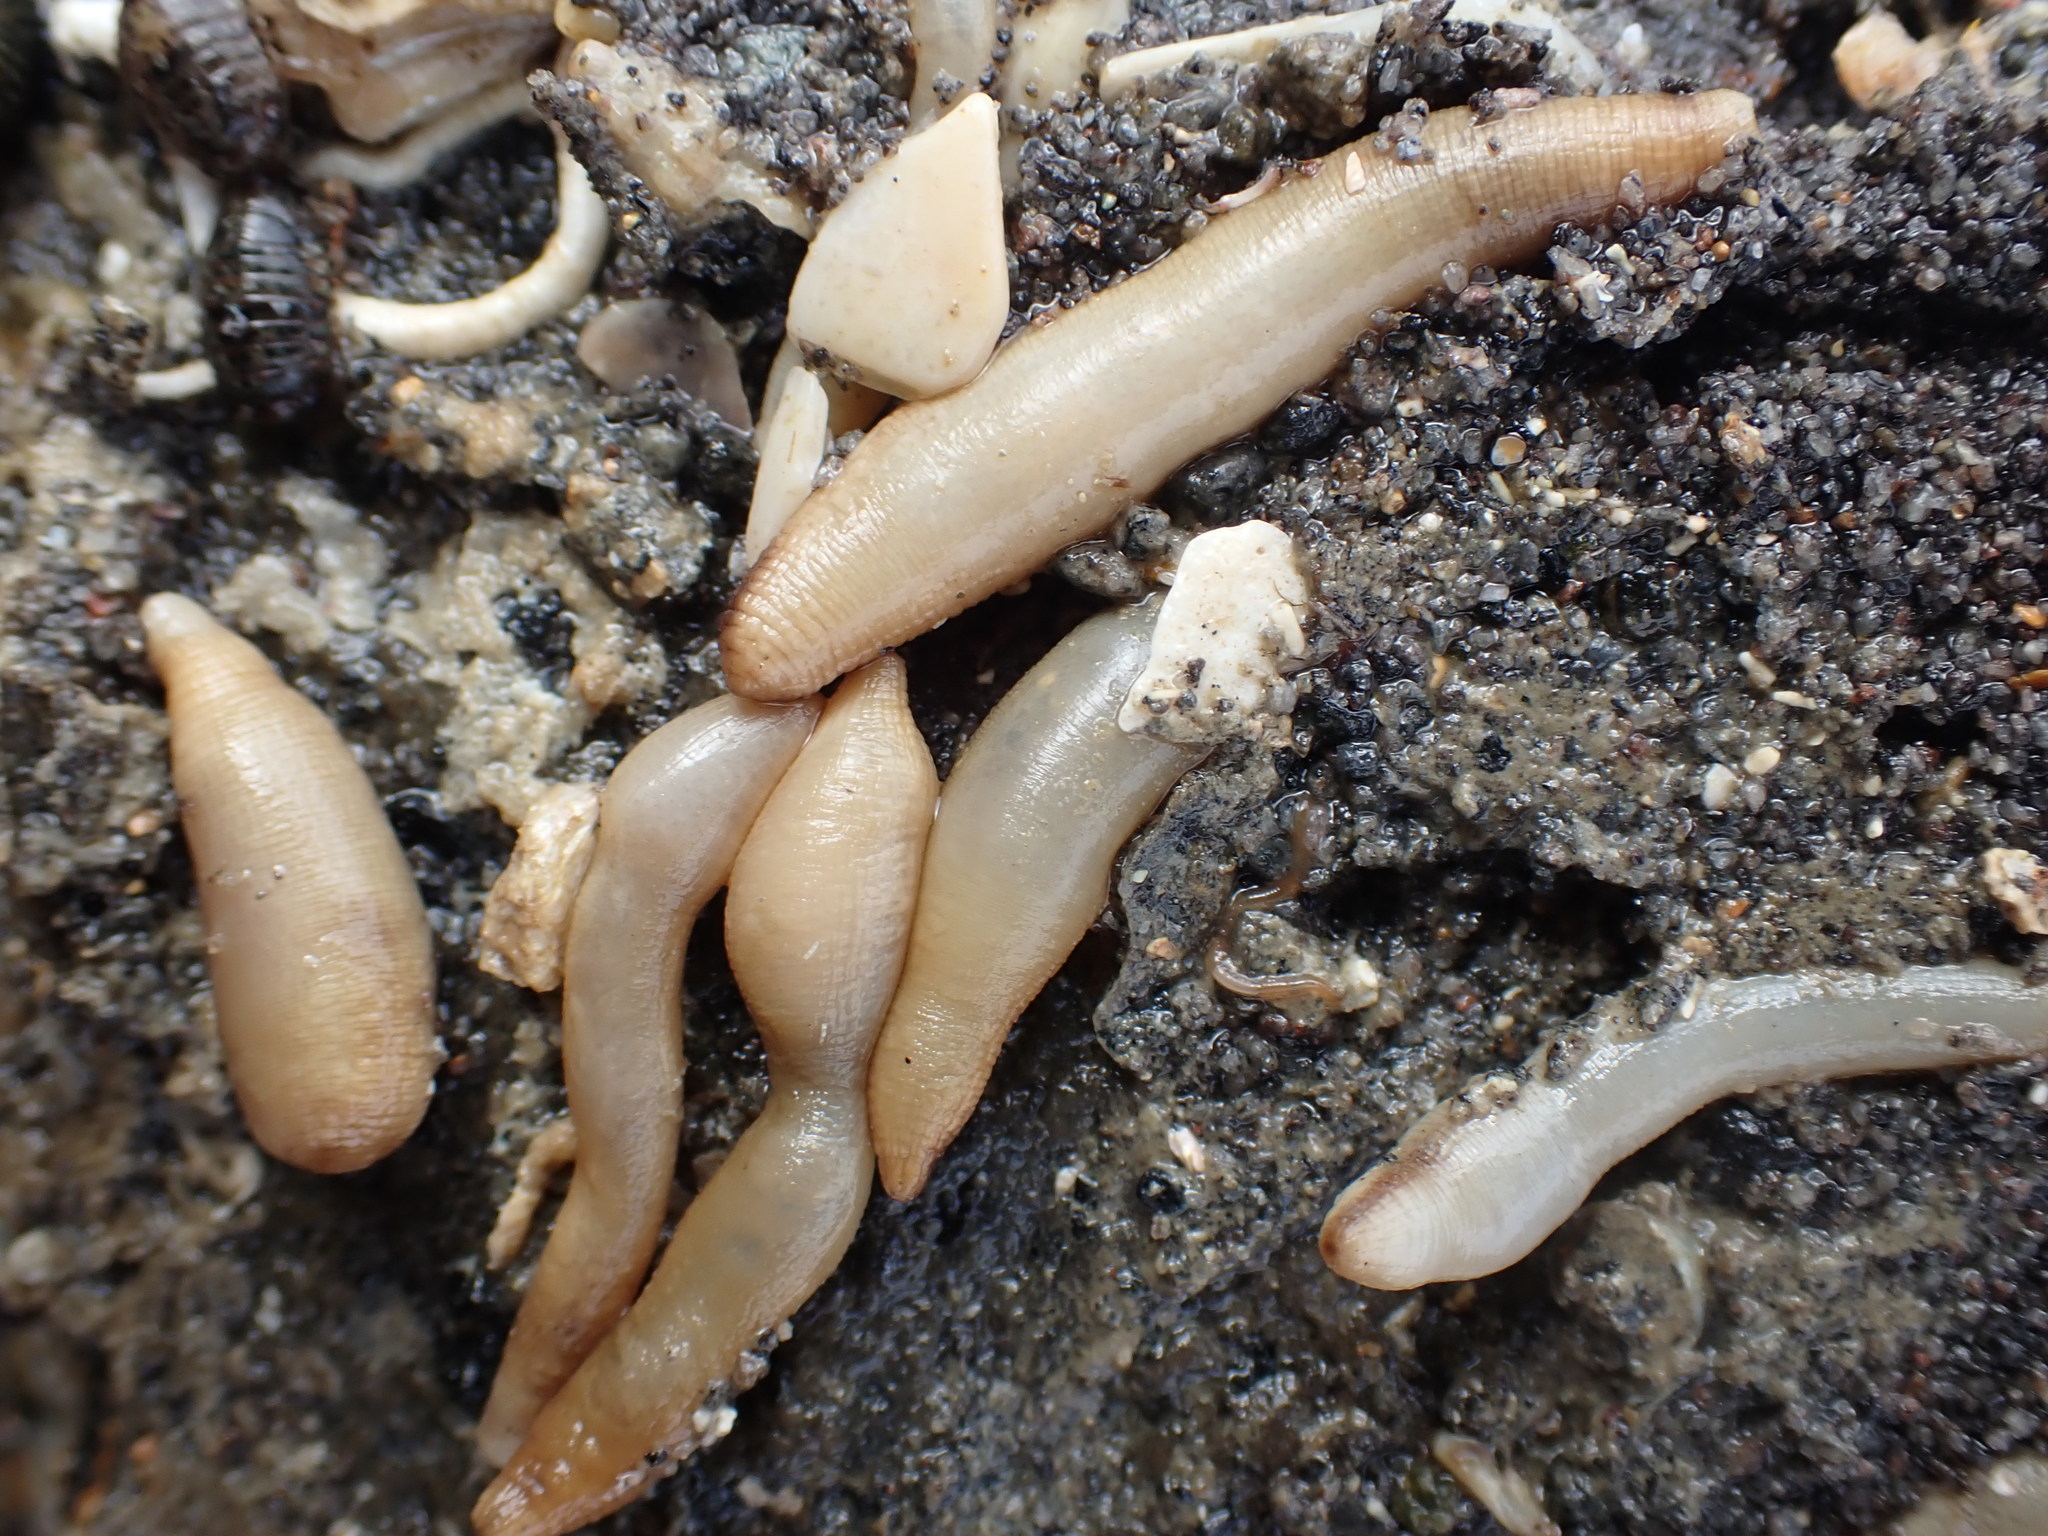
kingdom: Animalia
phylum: Sipuncula
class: Sipunculidea
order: Golfingiiformes
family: Themistidae
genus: Themiste
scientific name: Themiste minor
